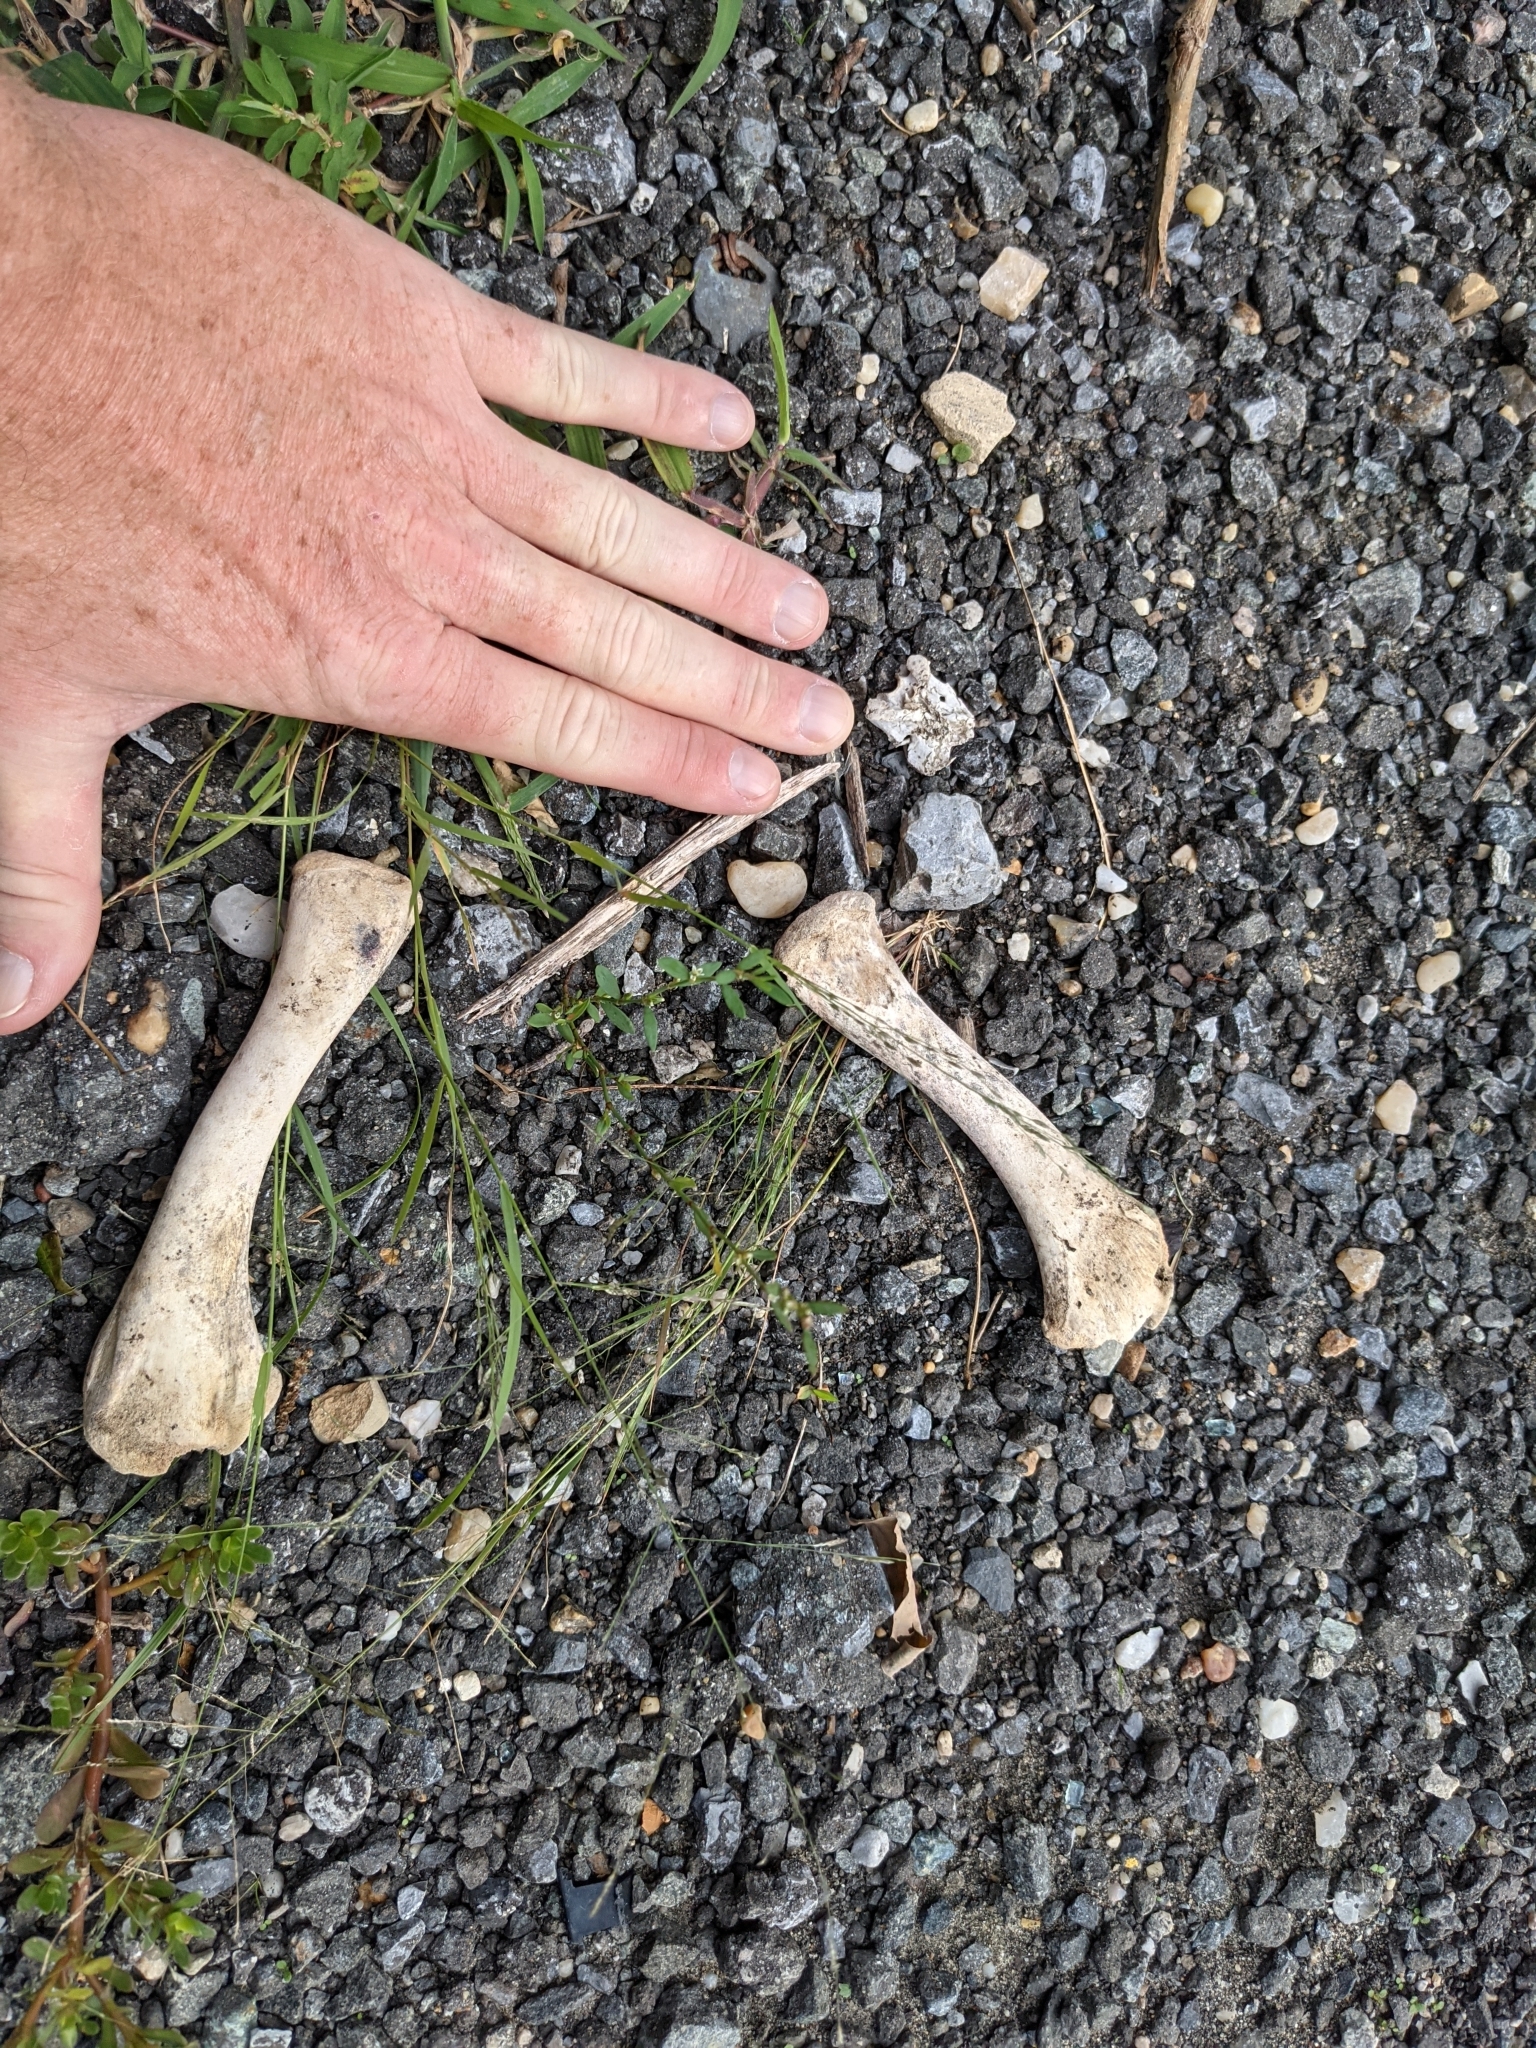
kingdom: Animalia
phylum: Chordata
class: Aves
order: Galliformes
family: Phasianidae
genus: Meleagris
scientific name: Meleagris gallopavo
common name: Wild turkey
